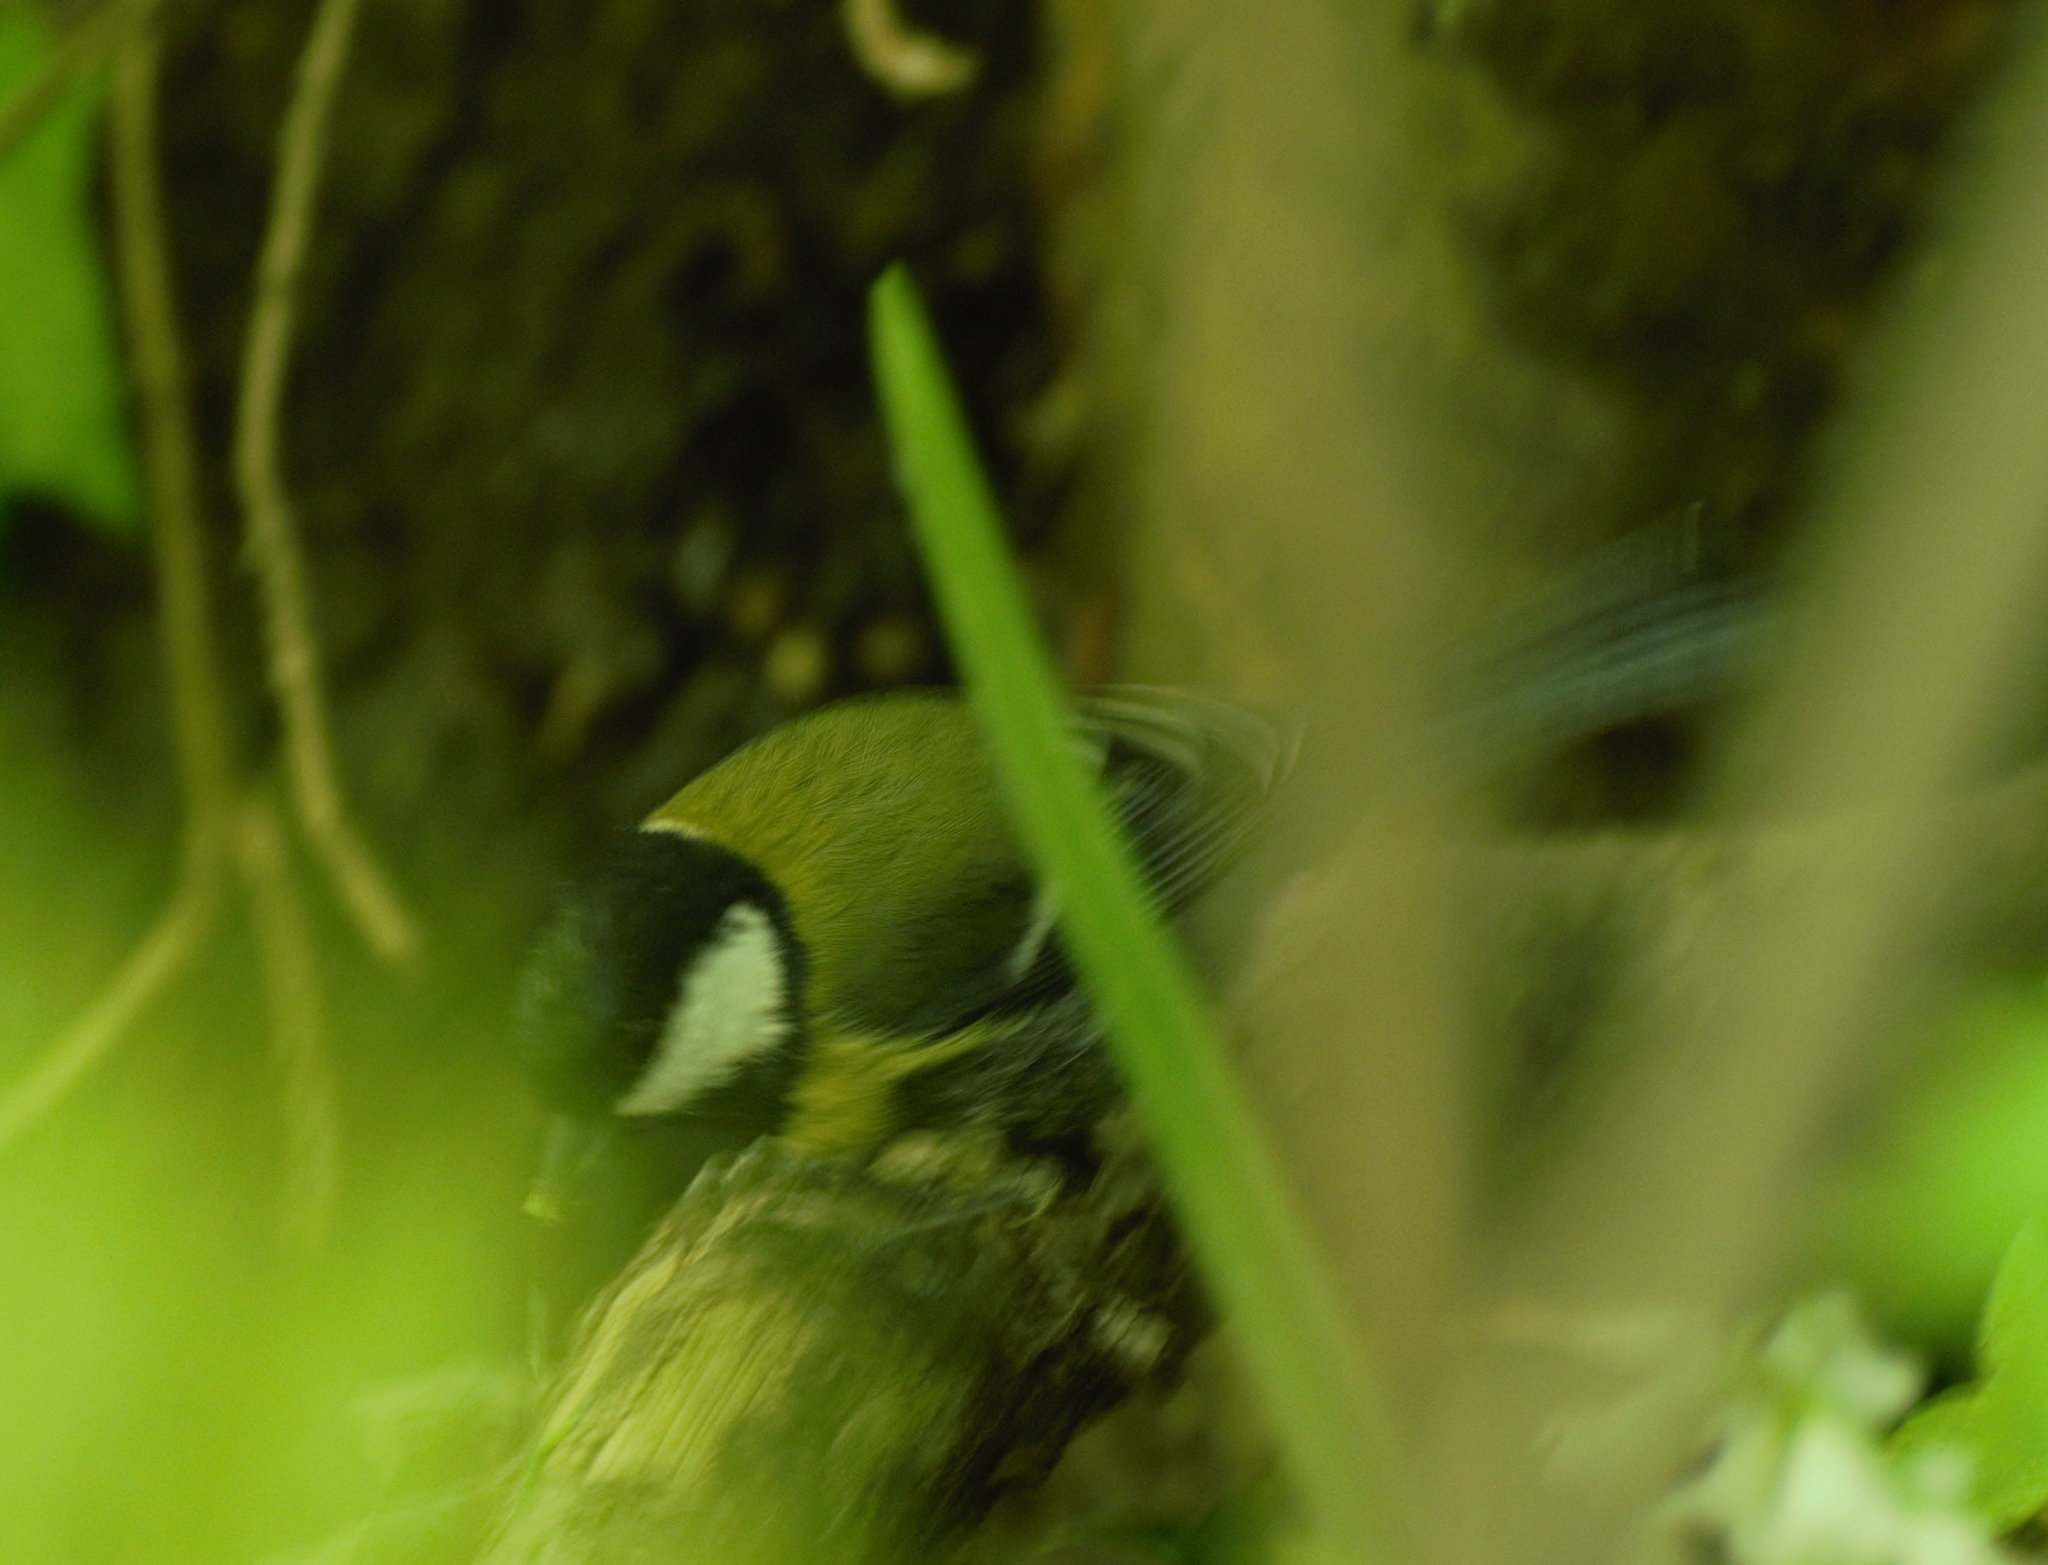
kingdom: Animalia
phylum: Chordata
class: Aves
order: Passeriformes
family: Paridae
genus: Parus
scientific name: Parus major
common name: Great tit
